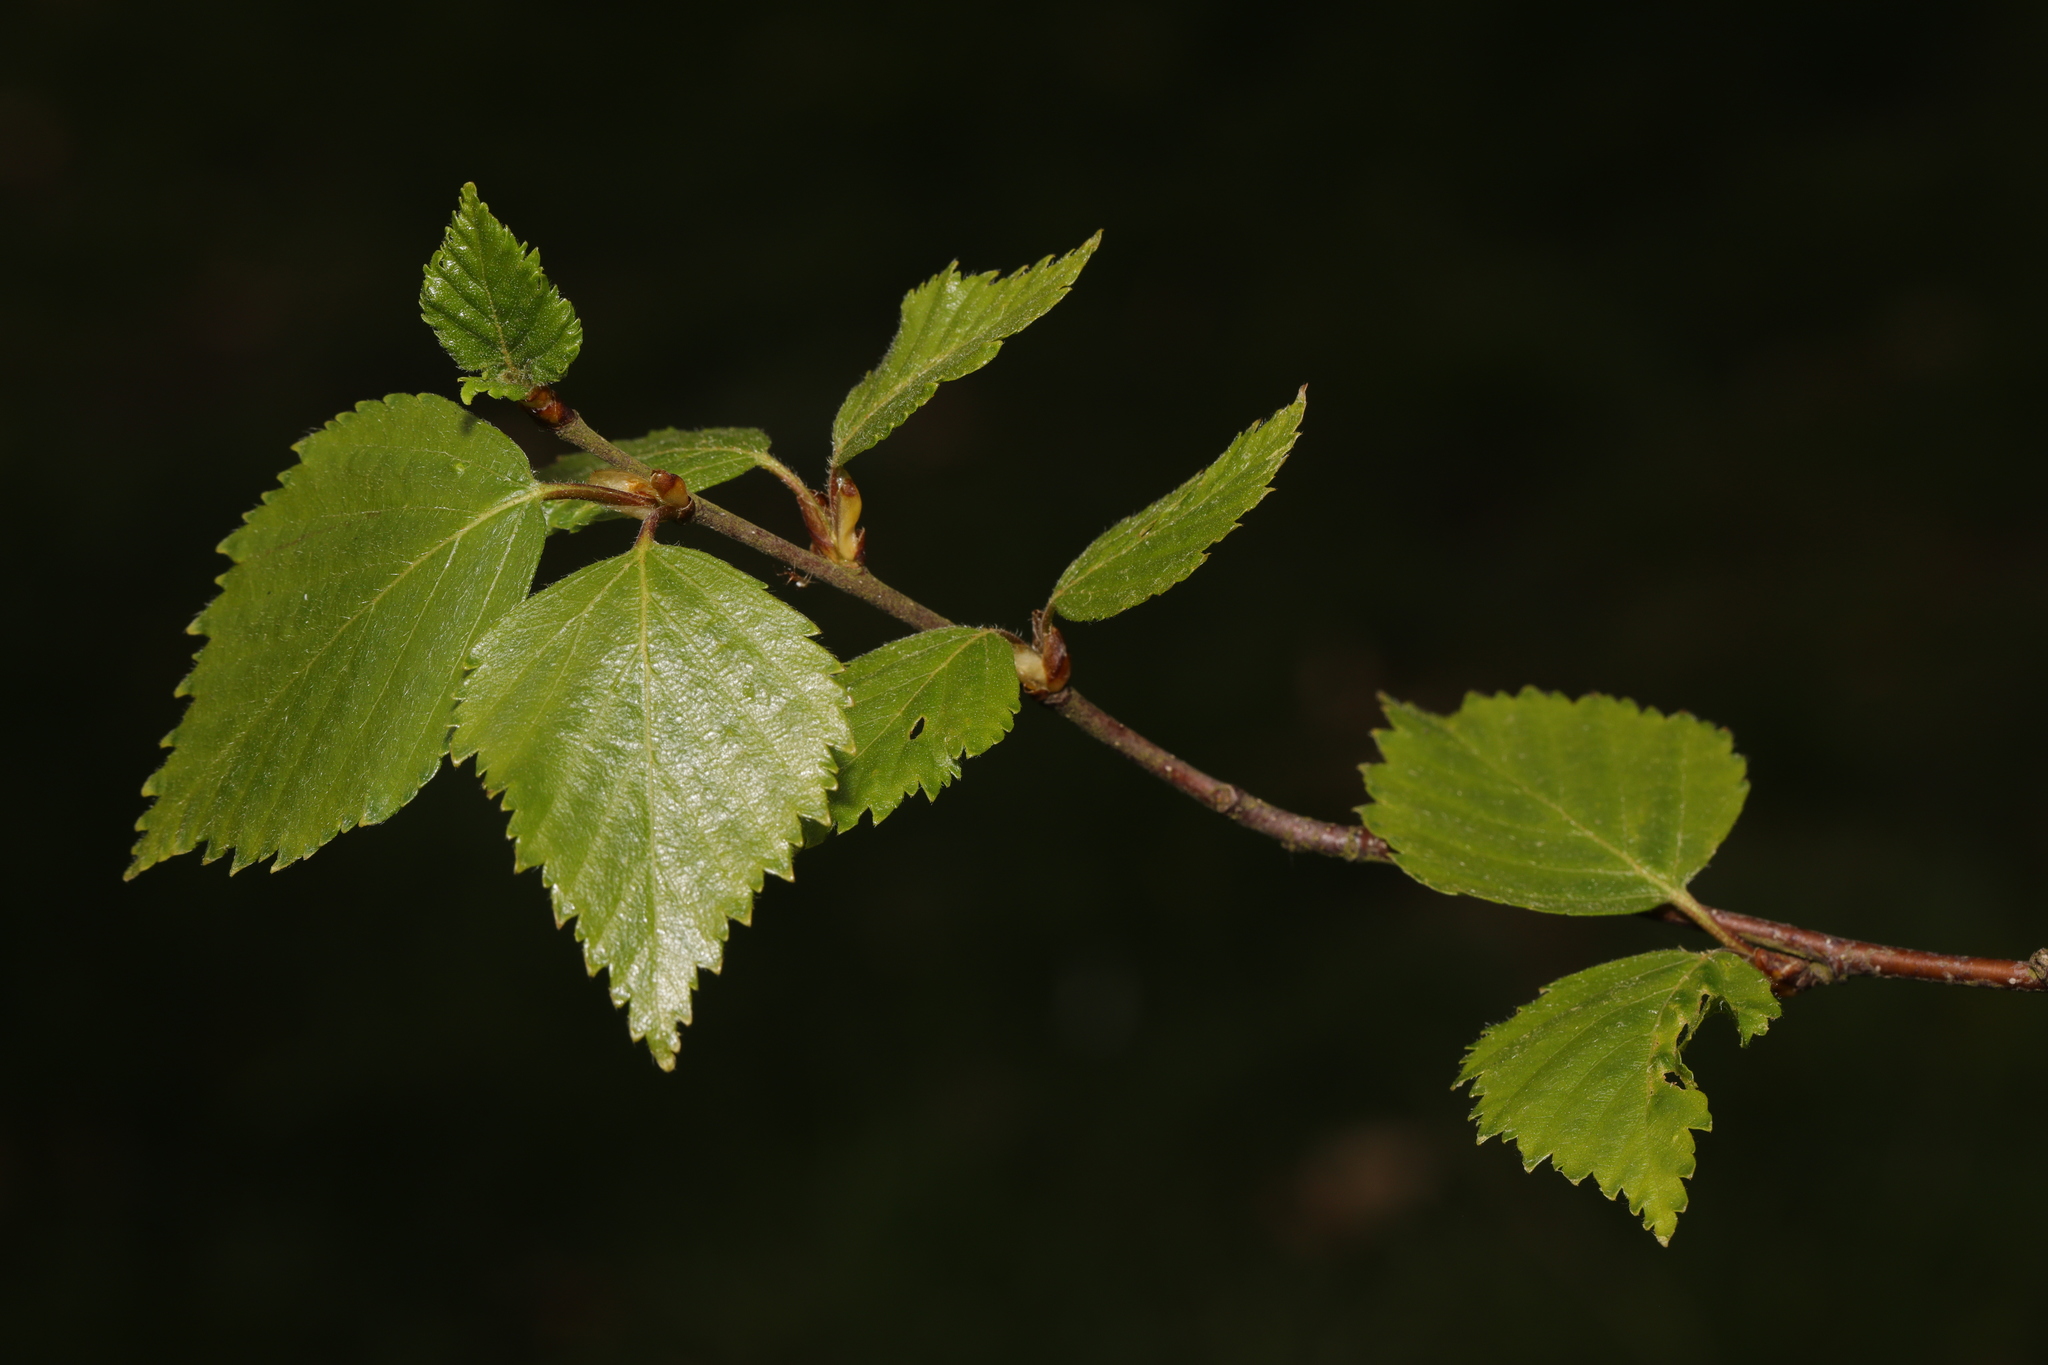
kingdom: Plantae
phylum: Tracheophyta
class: Magnoliopsida
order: Fagales
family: Betulaceae
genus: Betula
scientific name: Betula pubescens
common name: Downy birch
